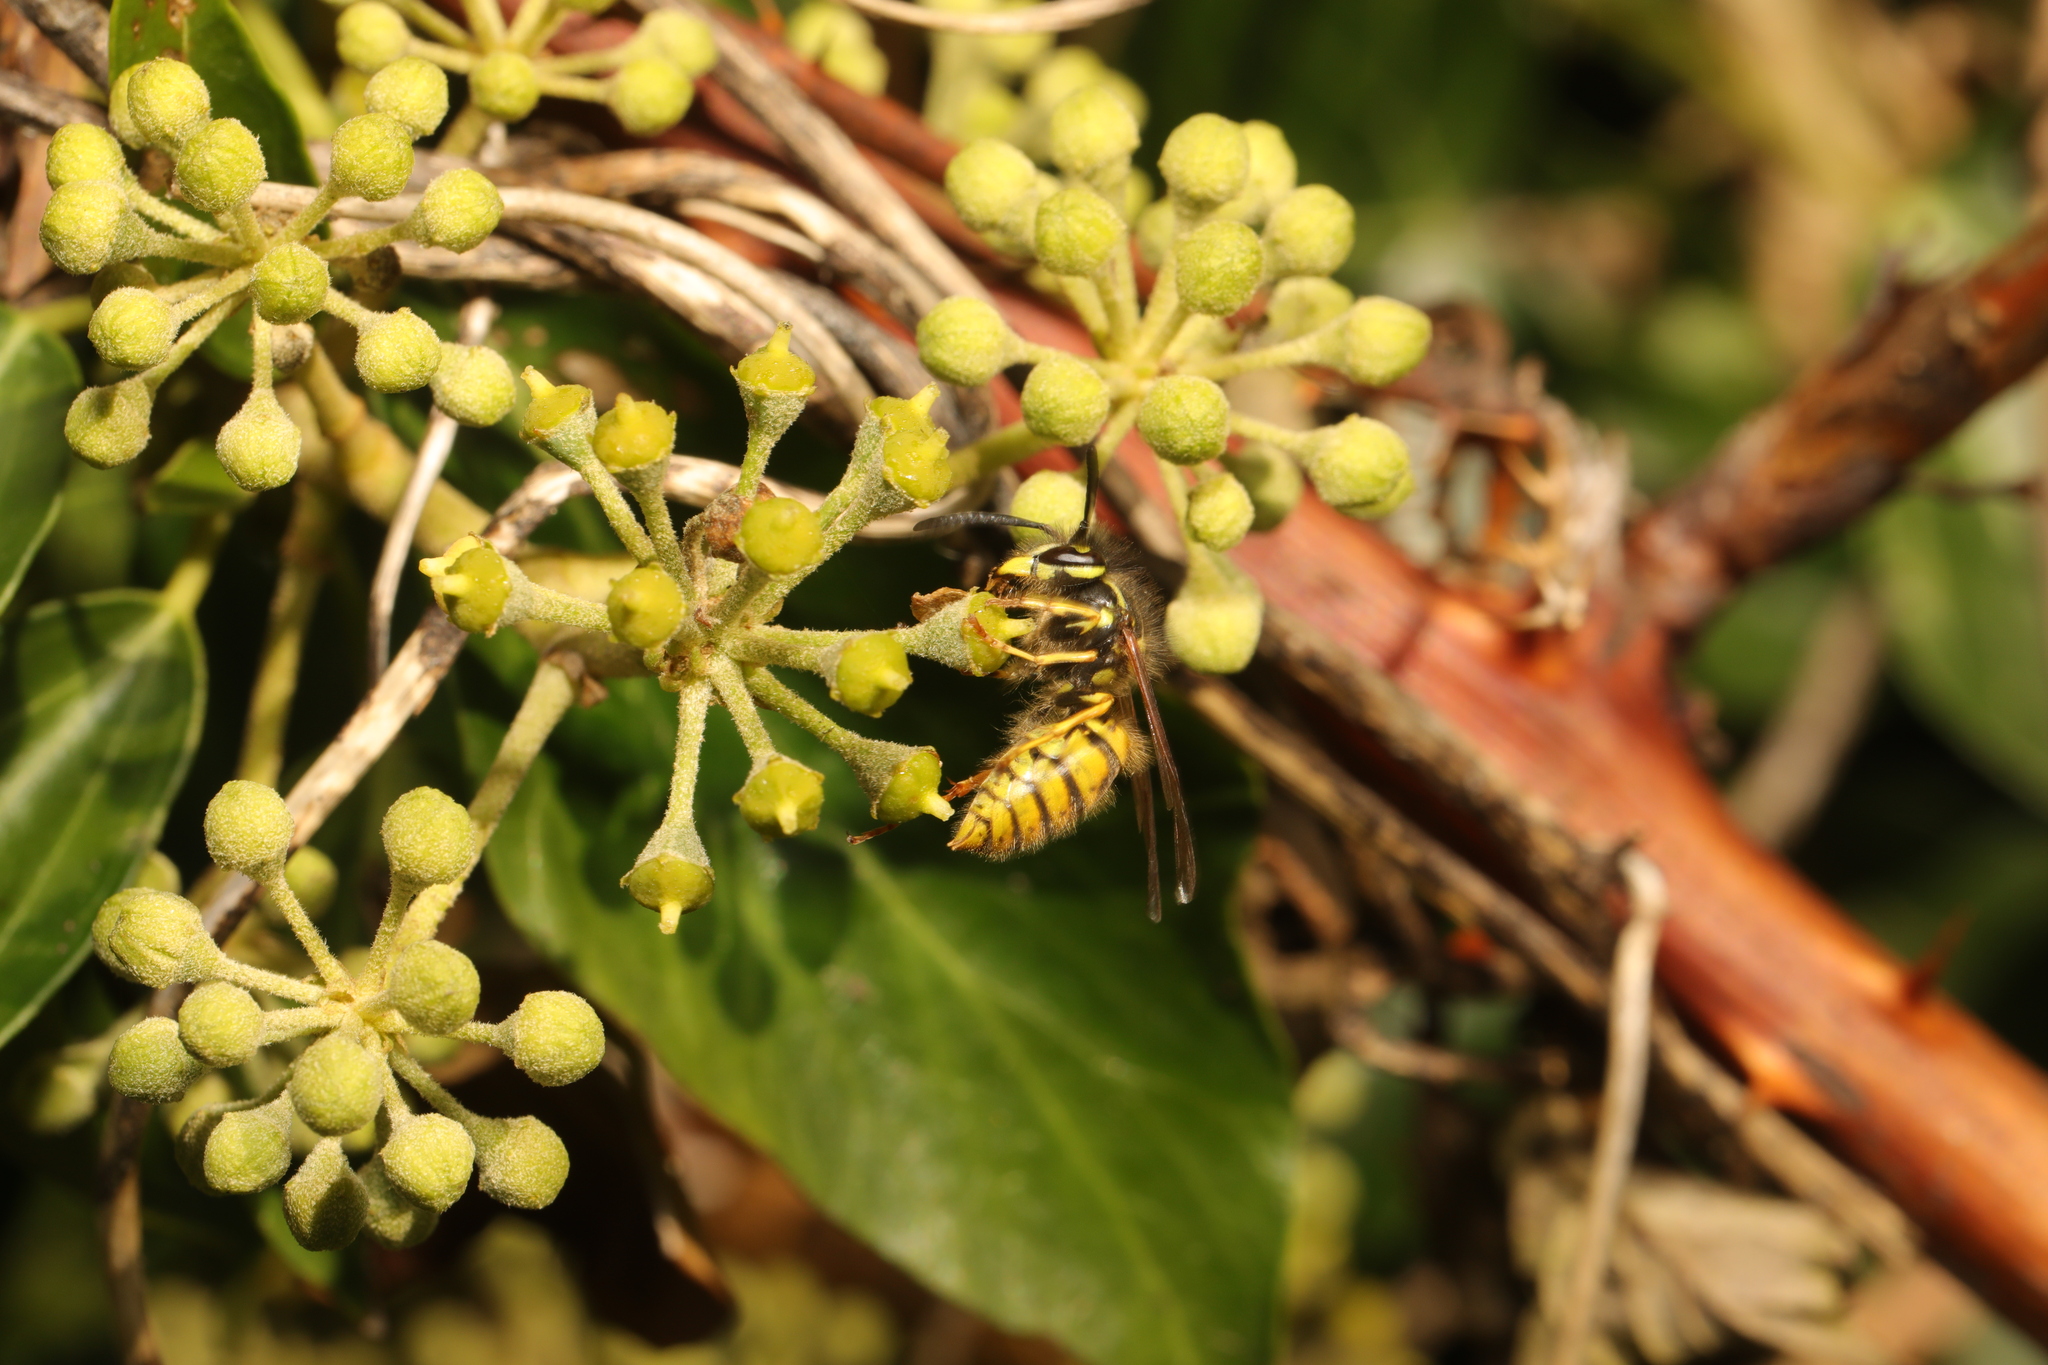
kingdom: Animalia
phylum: Arthropoda
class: Insecta
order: Hymenoptera
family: Vespidae
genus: Vespula
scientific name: Vespula germanica
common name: German wasp
